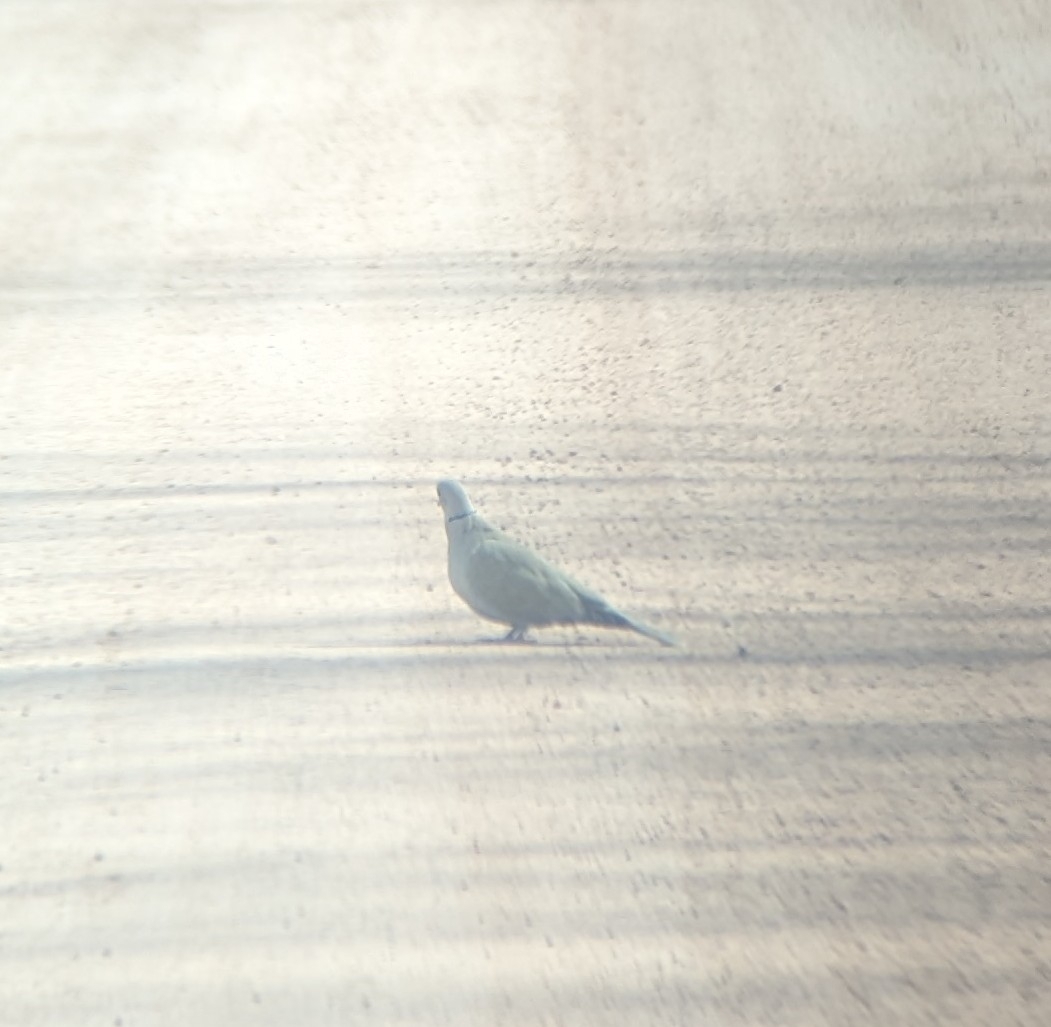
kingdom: Animalia
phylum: Chordata
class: Aves
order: Columbiformes
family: Columbidae
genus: Streptopelia
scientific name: Streptopelia decaocto
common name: Eurasian collared dove
